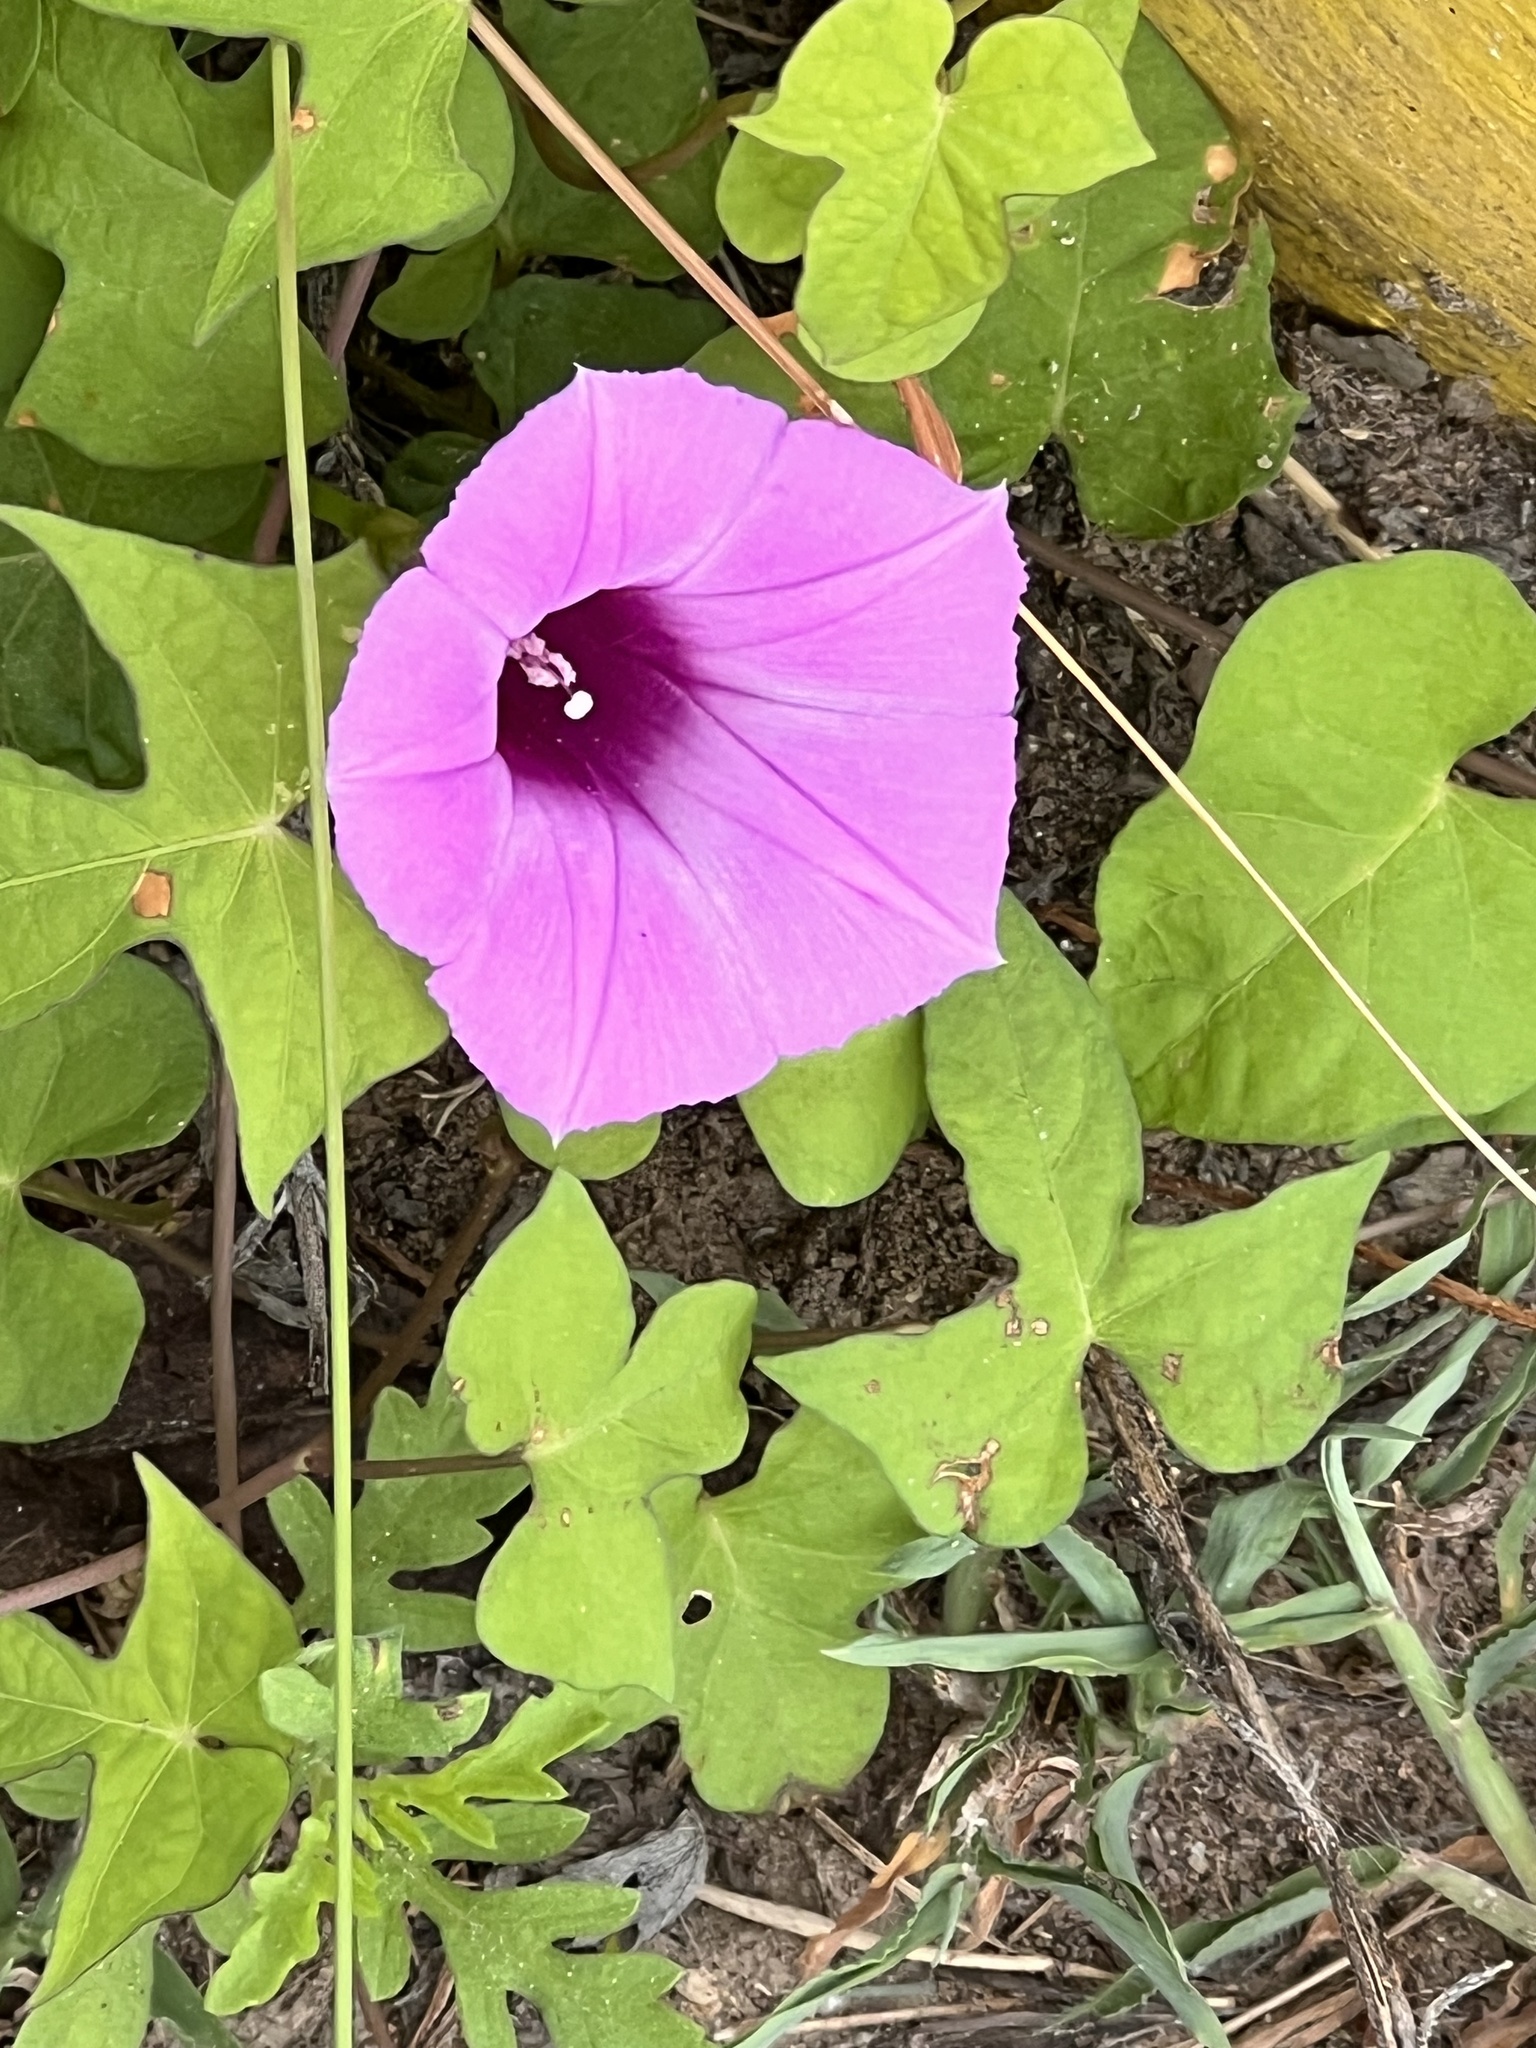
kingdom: Plantae
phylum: Tracheophyta
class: Magnoliopsida
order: Solanales
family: Convolvulaceae
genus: Ipomoea
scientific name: Ipomoea cordatotriloba
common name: Cotton morning glory
